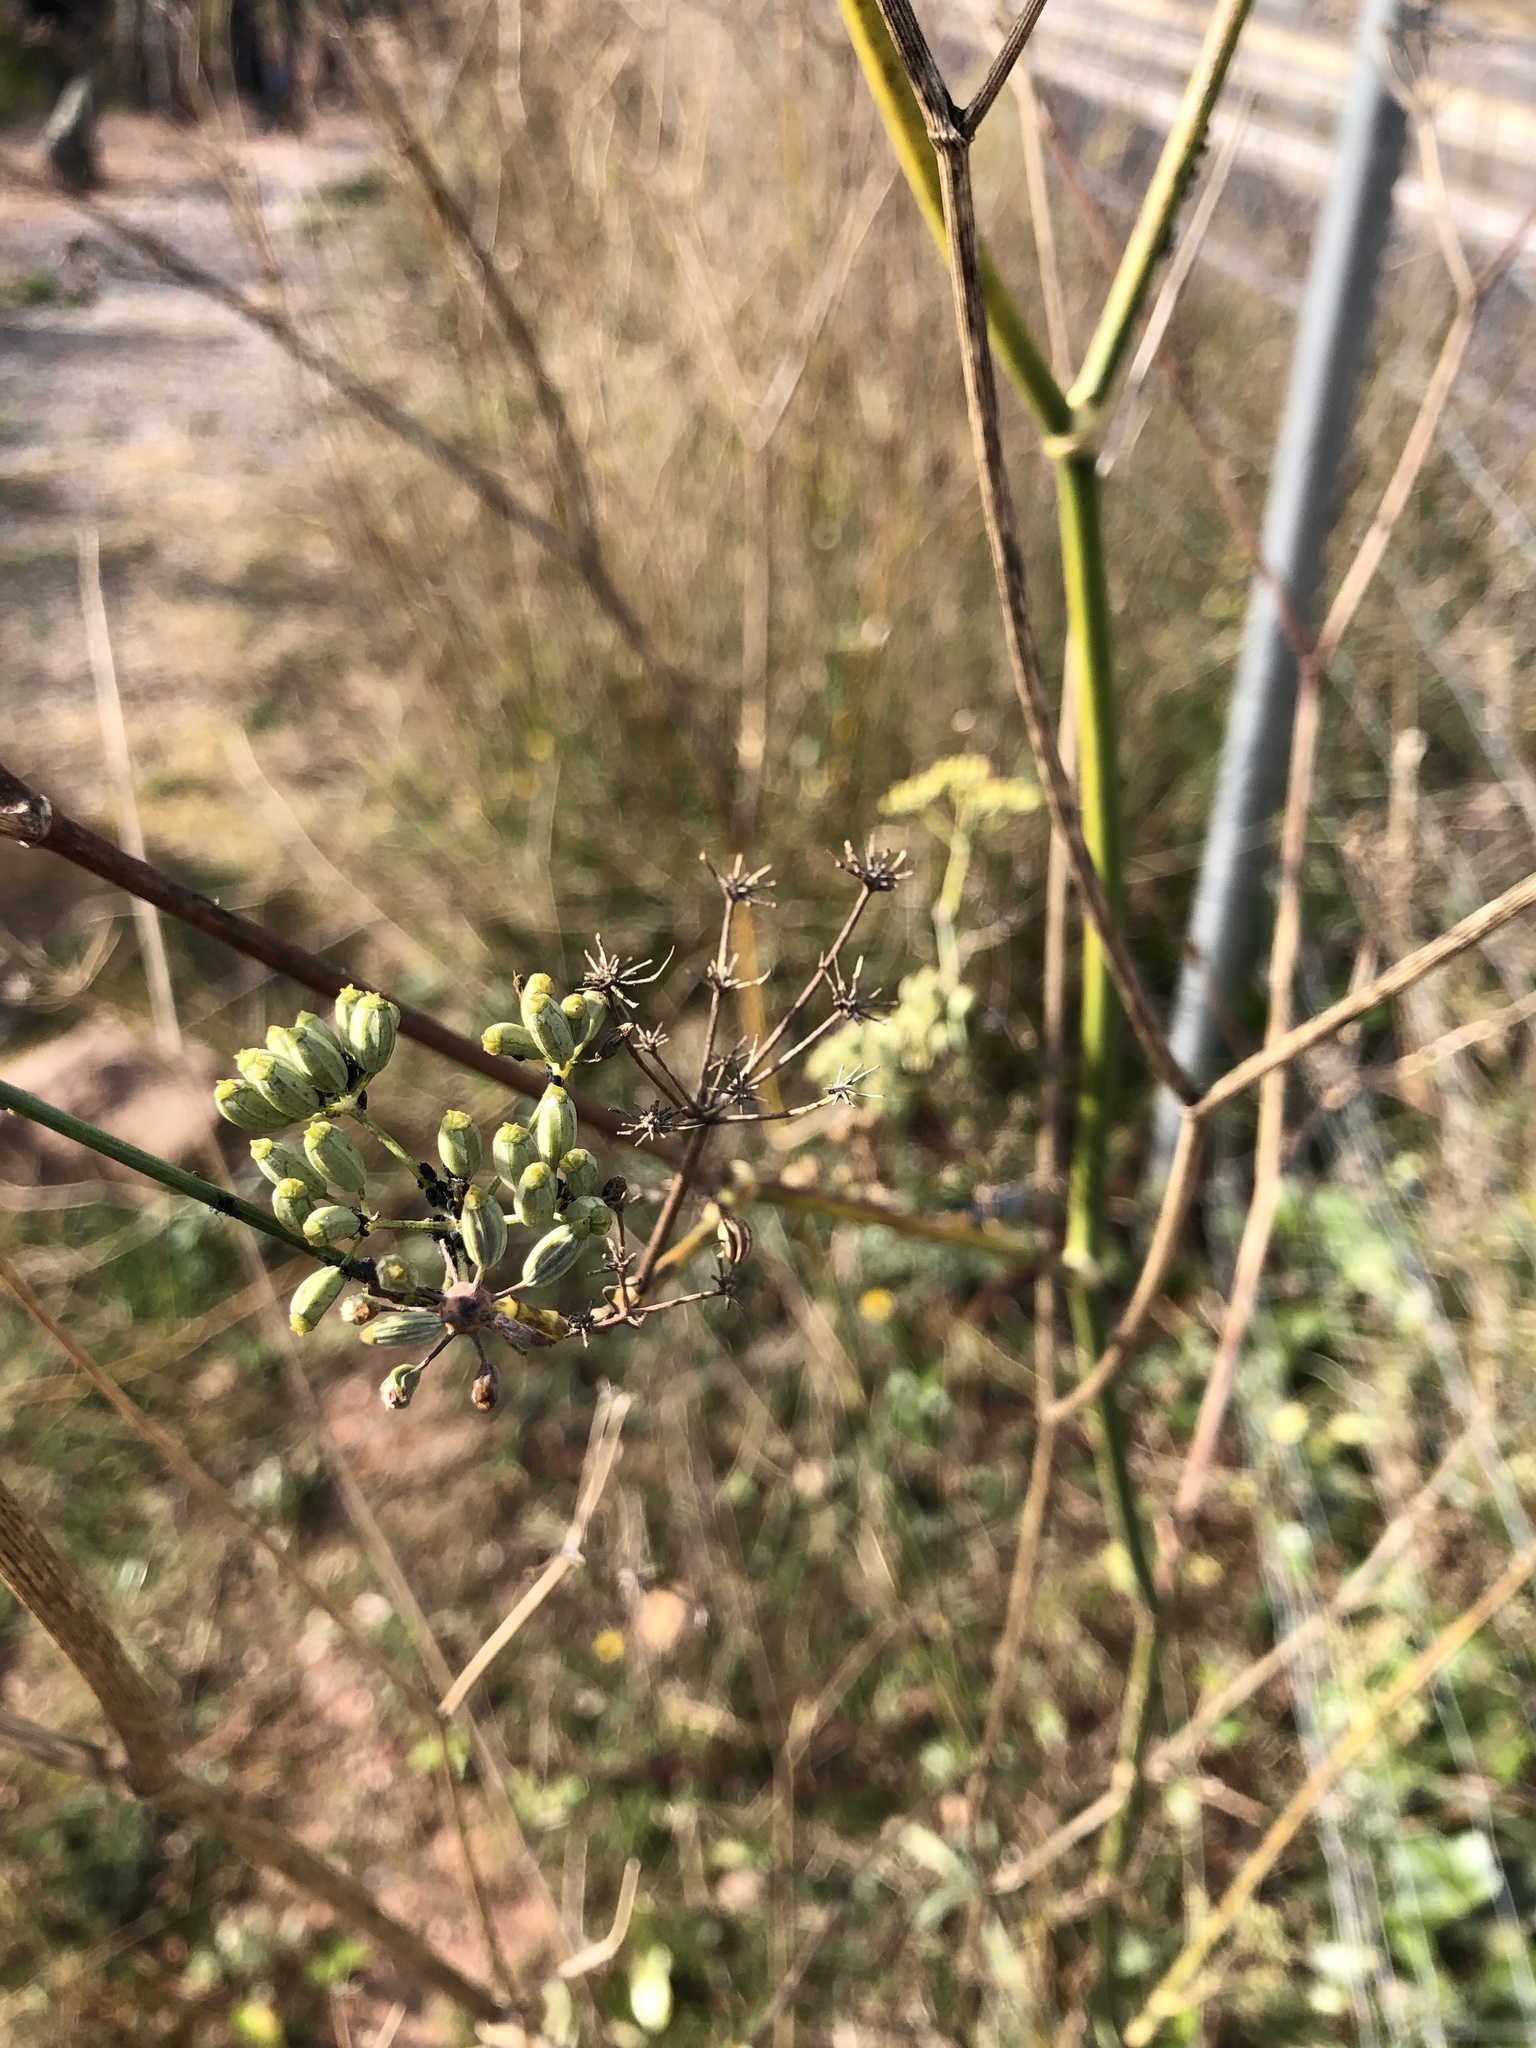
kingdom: Plantae
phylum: Tracheophyta
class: Magnoliopsida
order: Apiales
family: Apiaceae
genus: Foeniculum
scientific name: Foeniculum vulgare
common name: Fennel
